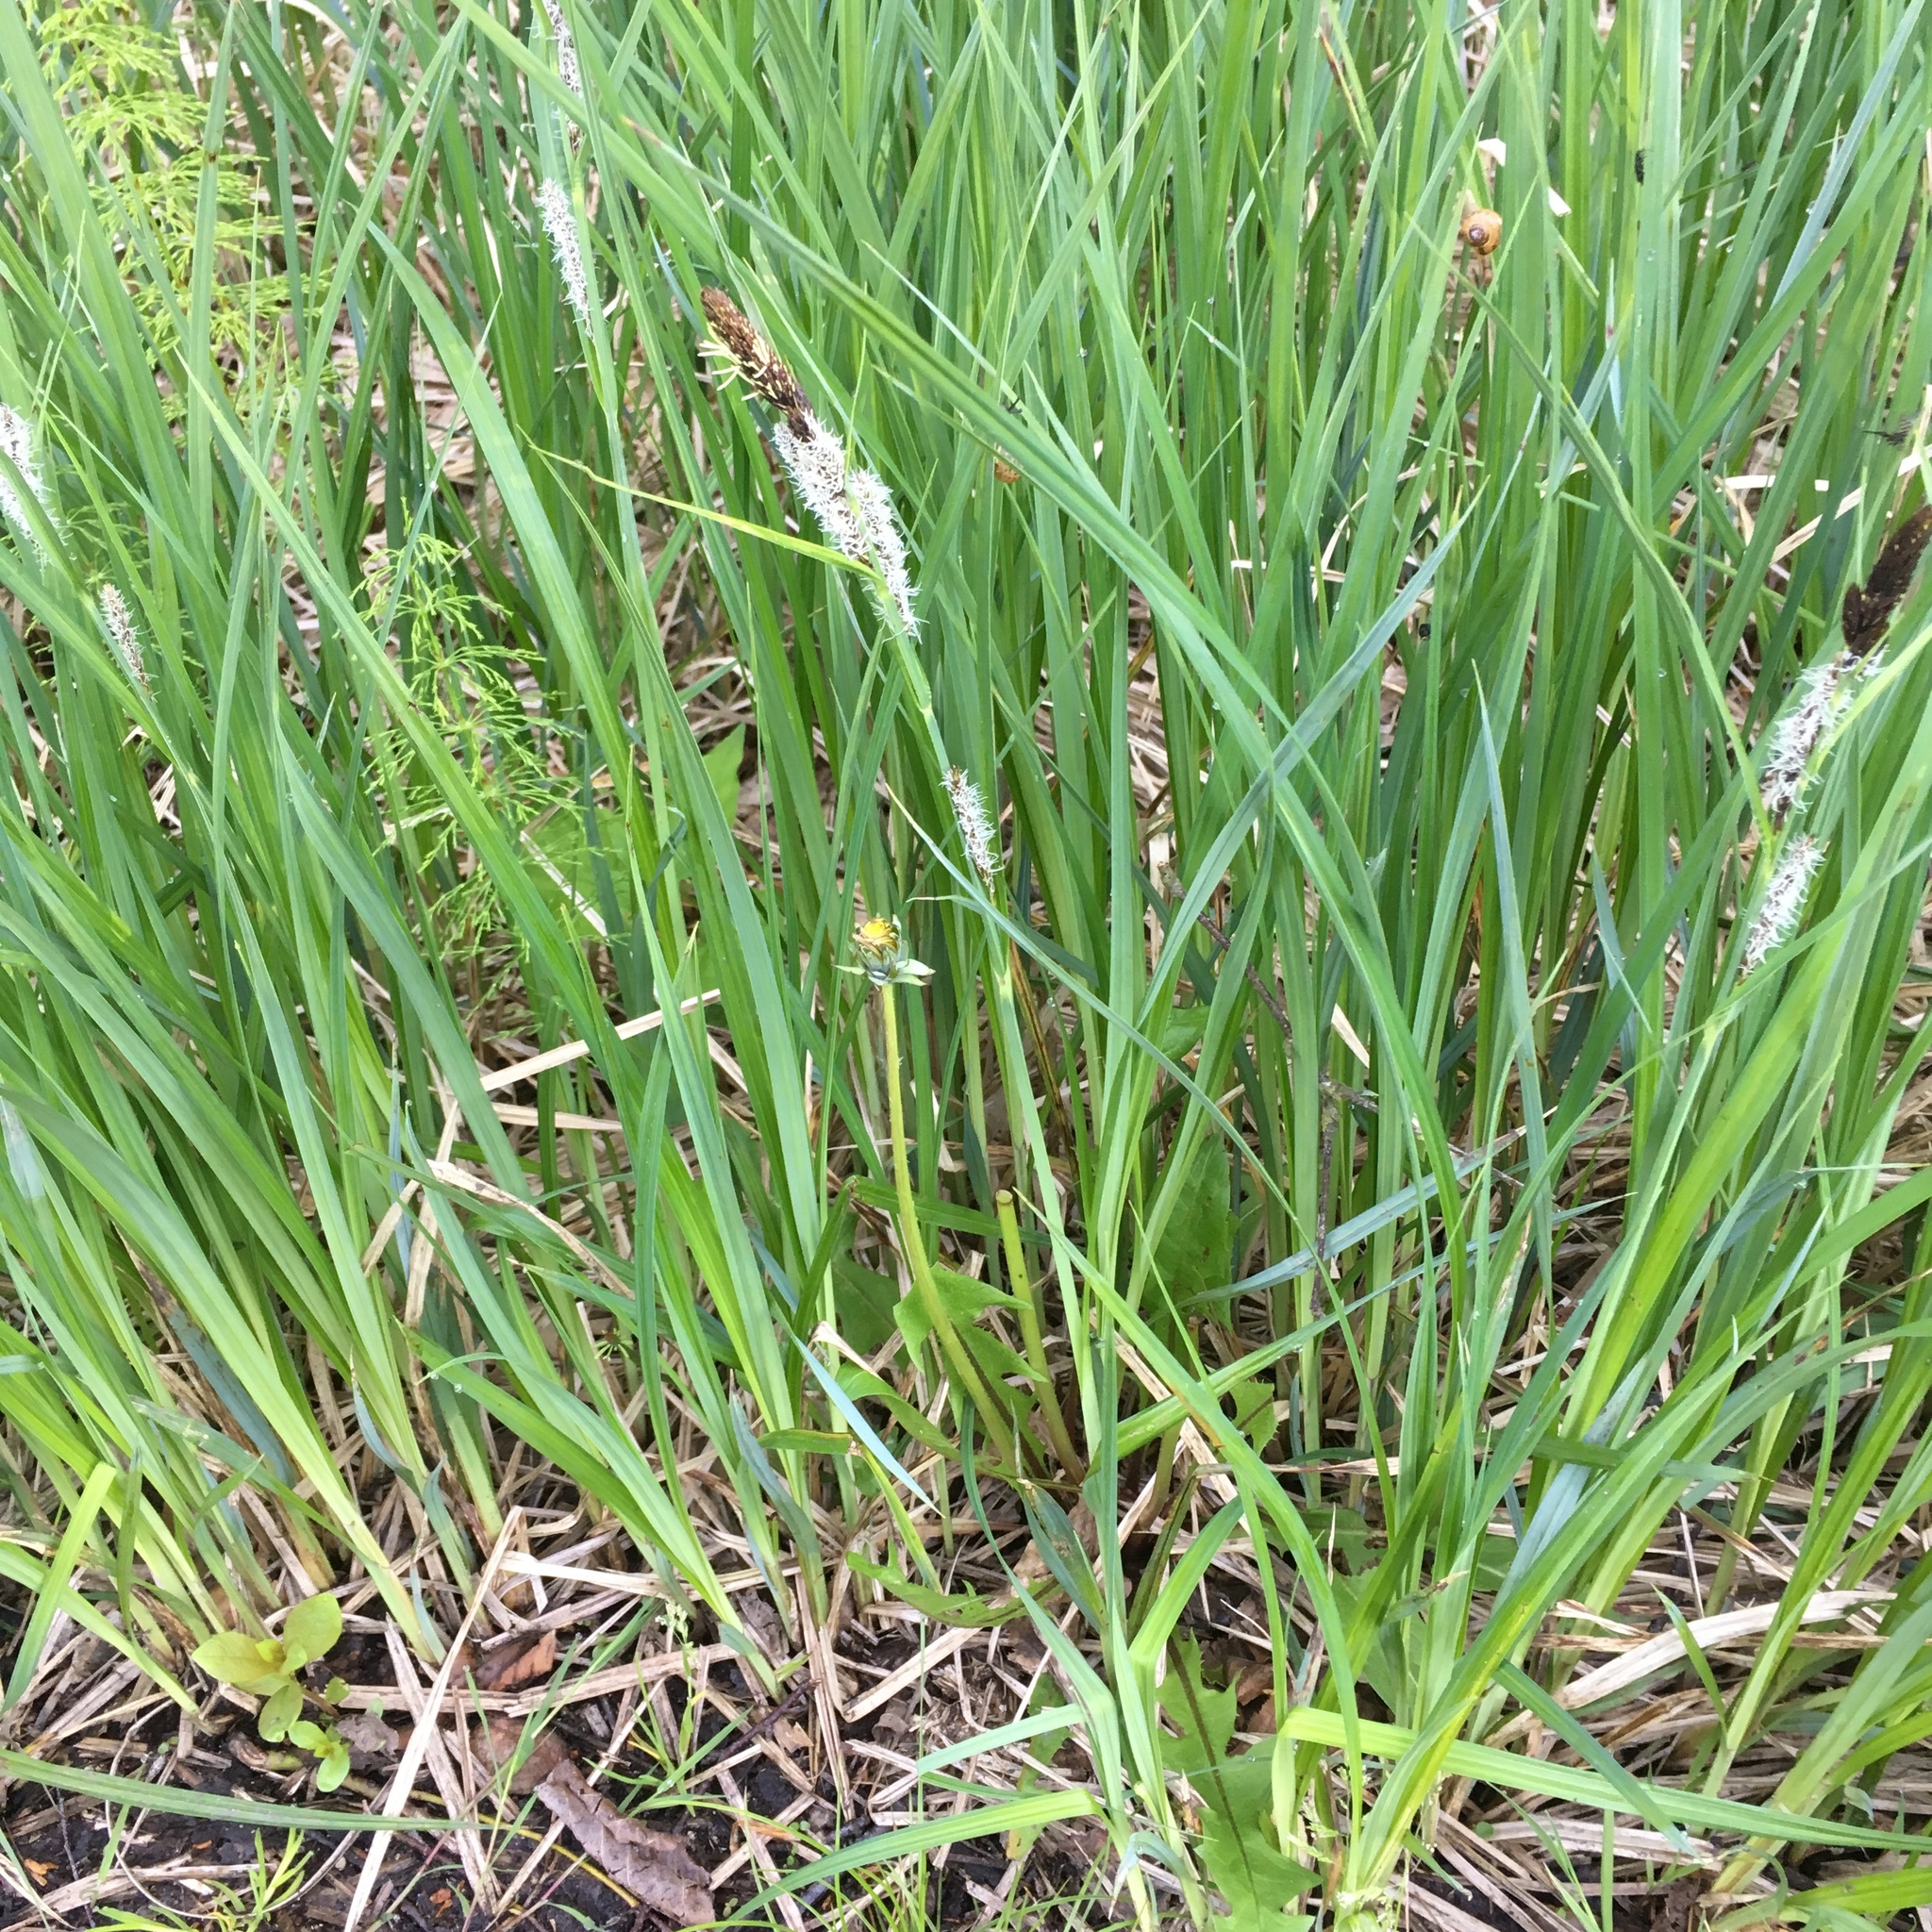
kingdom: Plantae
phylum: Tracheophyta
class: Liliopsida
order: Poales
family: Cyperaceae
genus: Carex
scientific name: Carex acutiformis
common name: Lesser pond-sedge
